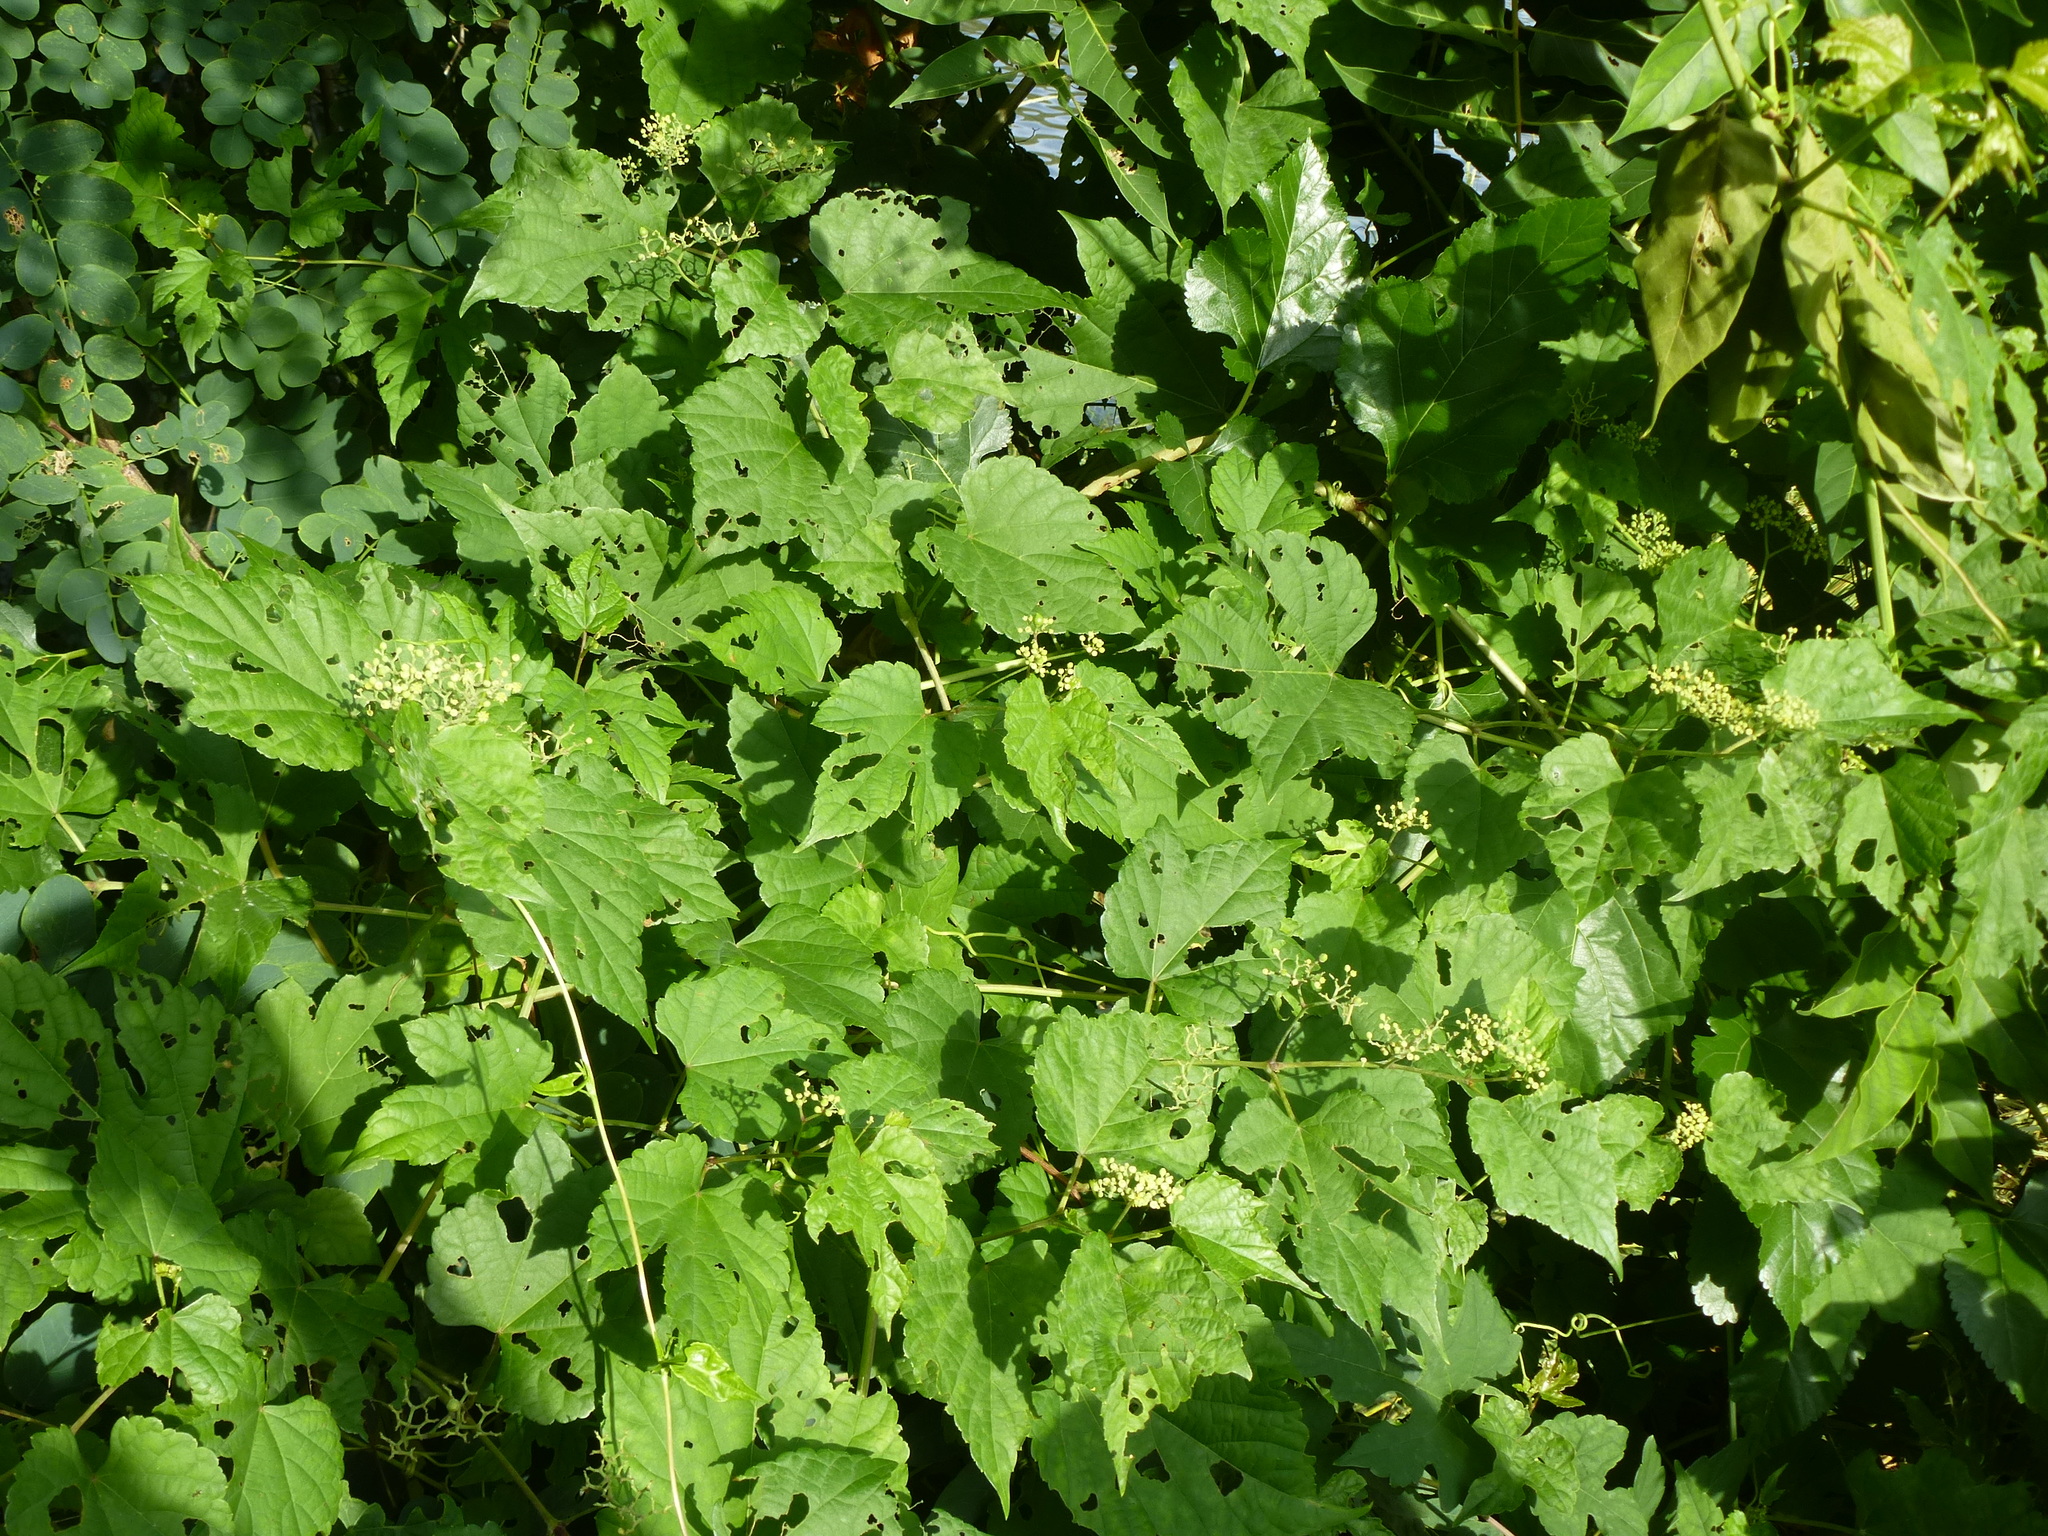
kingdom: Plantae
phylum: Tracheophyta
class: Magnoliopsida
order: Vitales
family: Vitaceae
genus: Ampelopsis
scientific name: Ampelopsis glandulosa
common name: Amur peppervine
